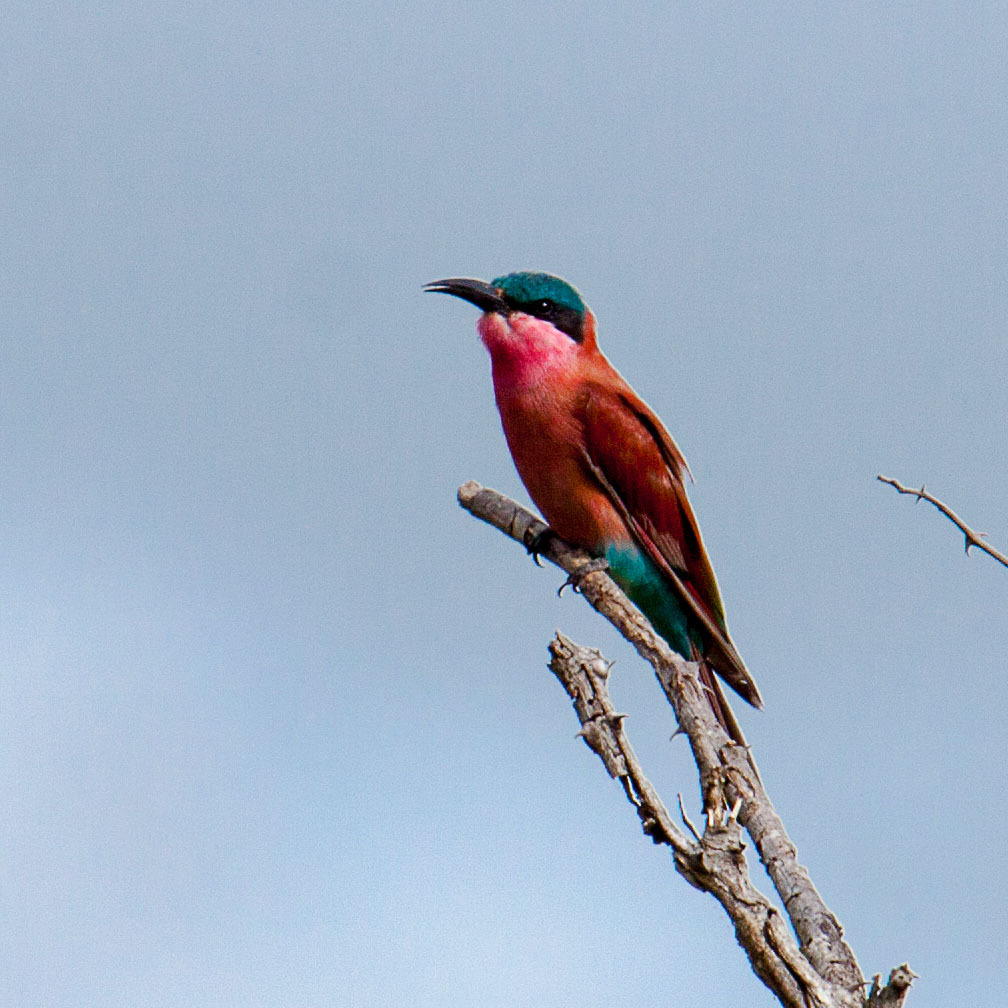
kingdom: Animalia
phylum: Chordata
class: Aves
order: Coraciiformes
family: Meropidae
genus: Merops
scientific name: Merops nubicoides
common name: Southern carmine bee-eater
